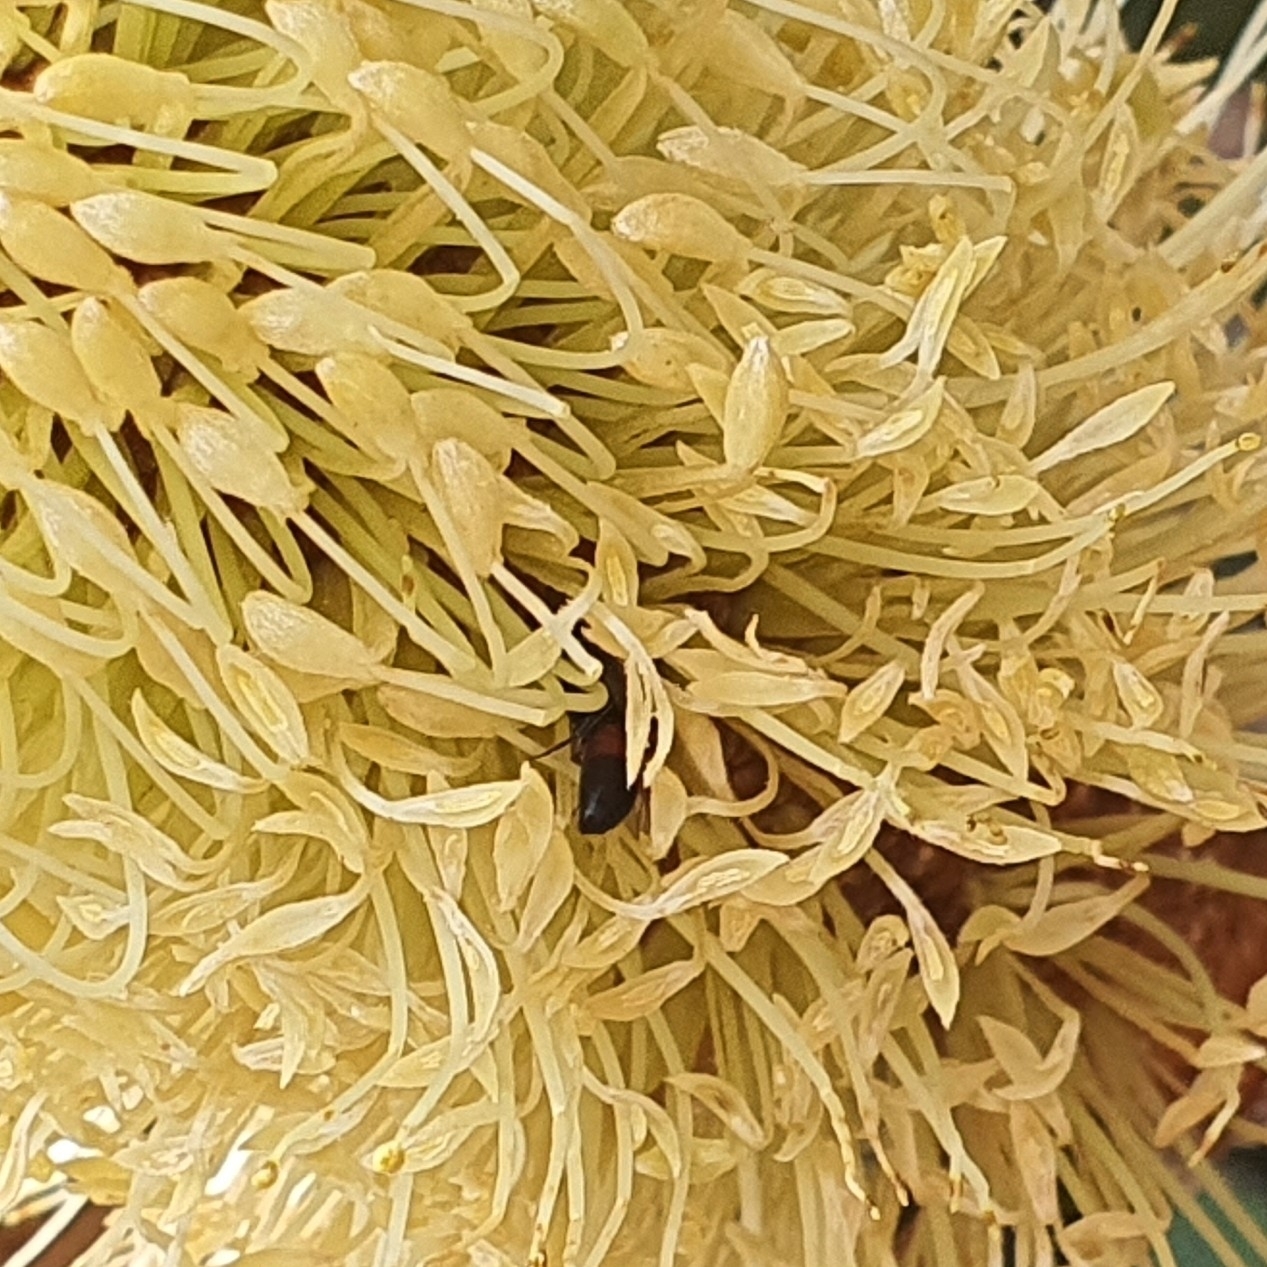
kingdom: Animalia
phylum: Arthropoda
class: Insecta
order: Hymenoptera
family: Colletidae
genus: Hylaeus
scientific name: Hylaeus littleri
